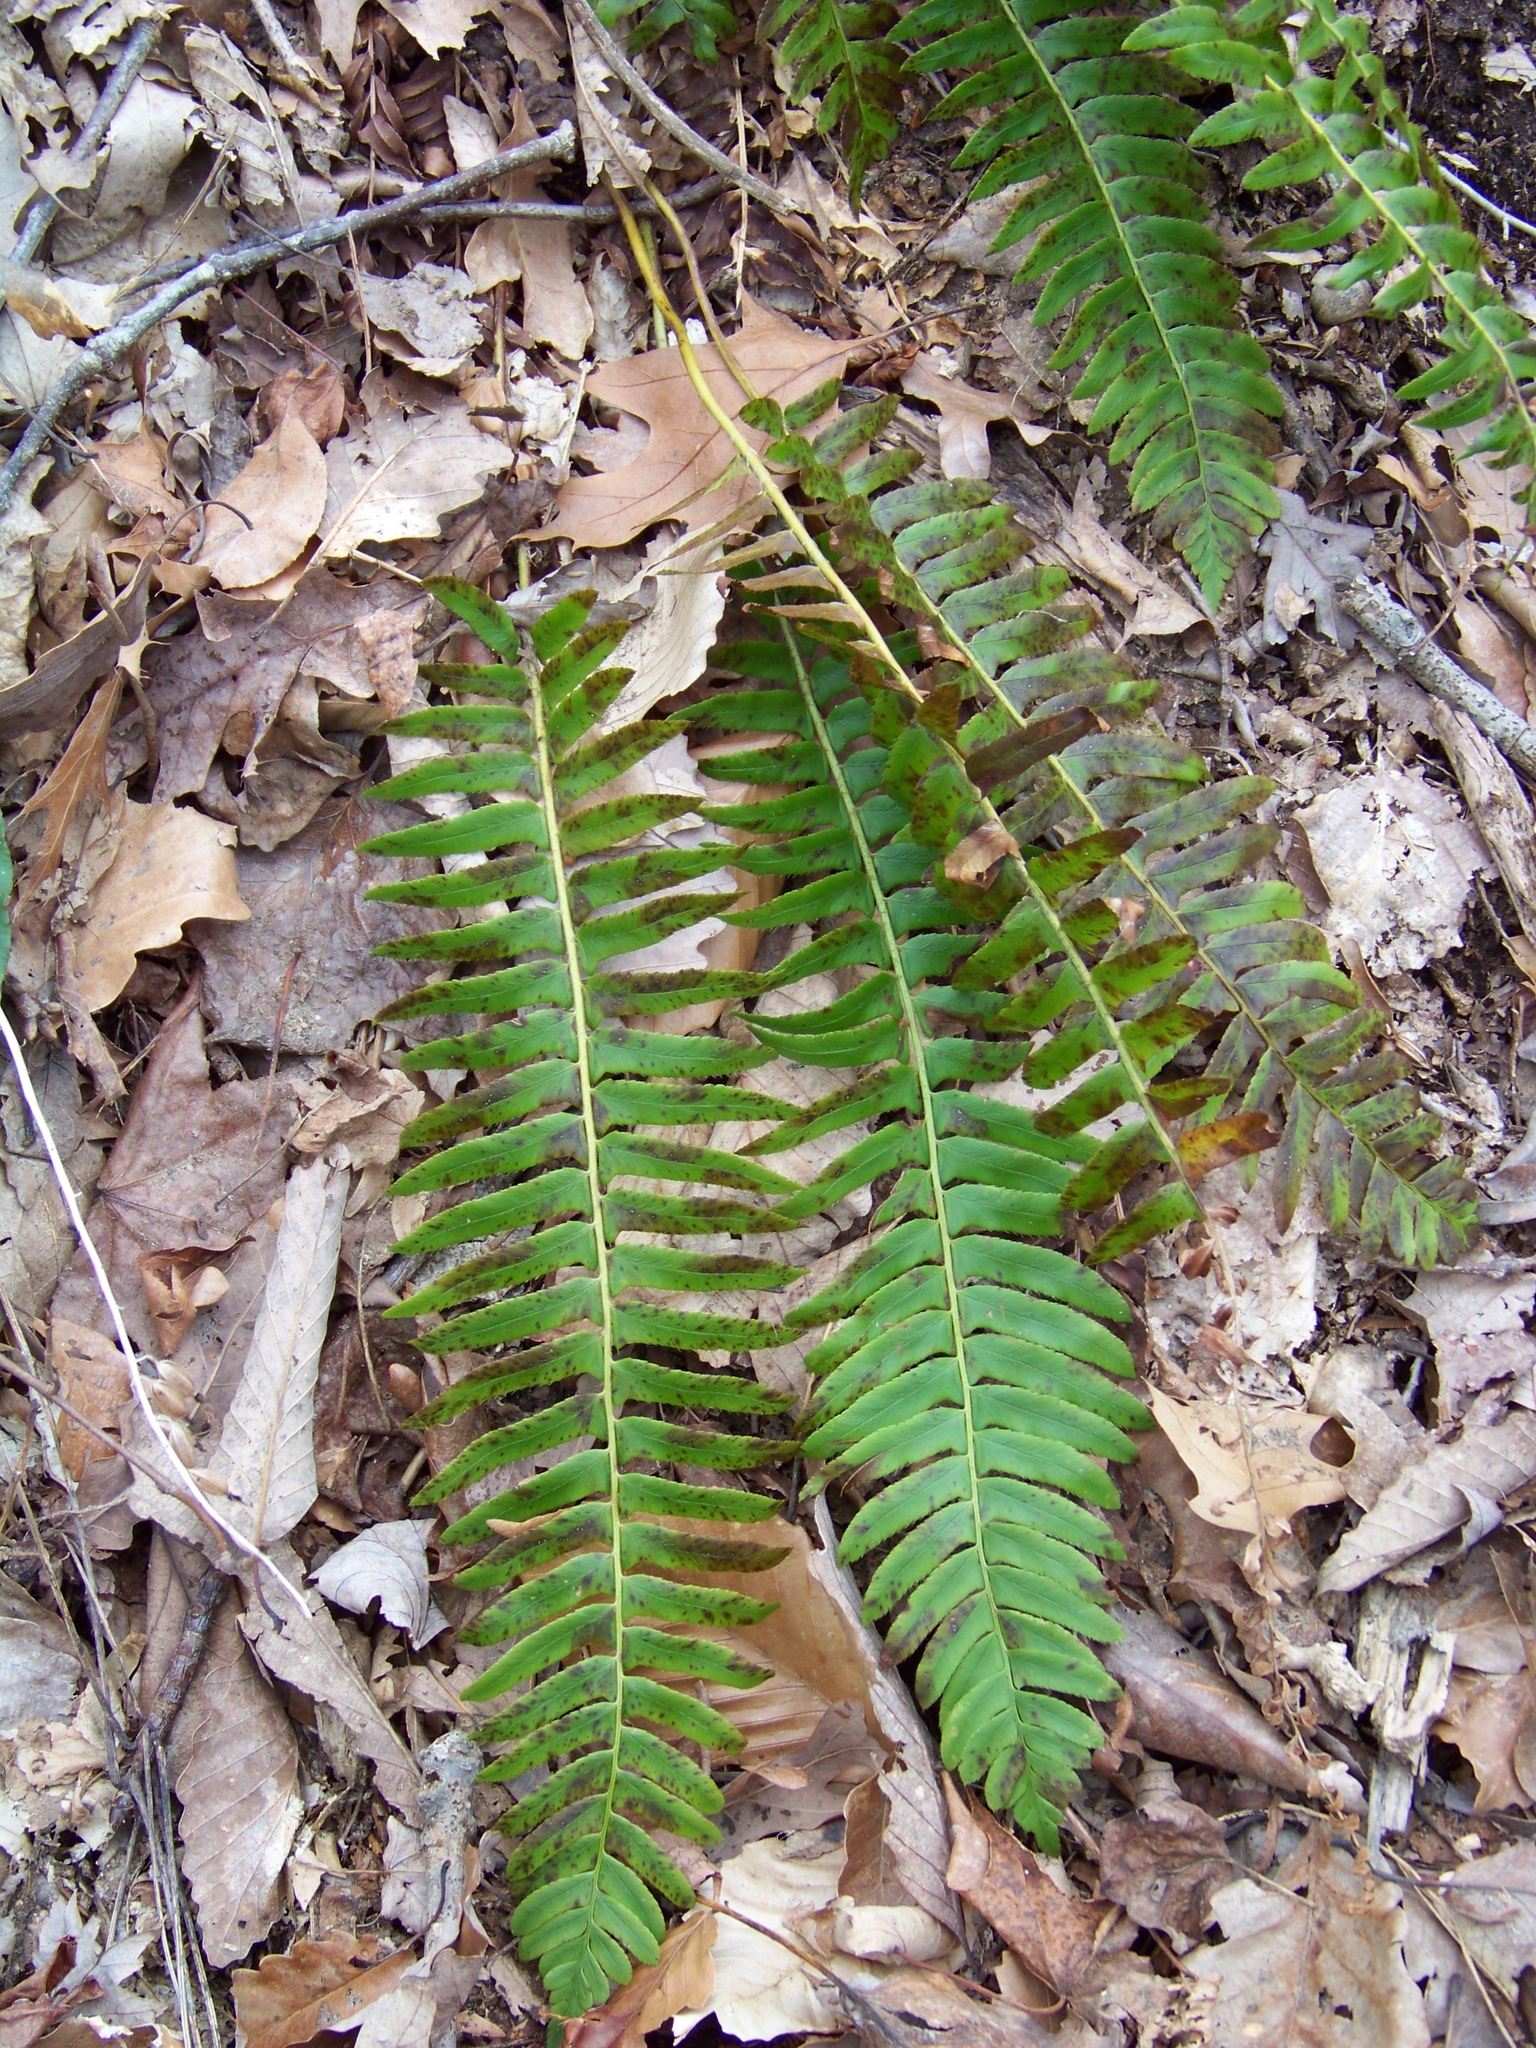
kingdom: Plantae
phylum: Tracheophyta
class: Polypodiopsida
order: Polypodiales
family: Dryopteridaceae
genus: Polystichum
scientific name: Polystichum acrostichoides
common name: Christmas fern
